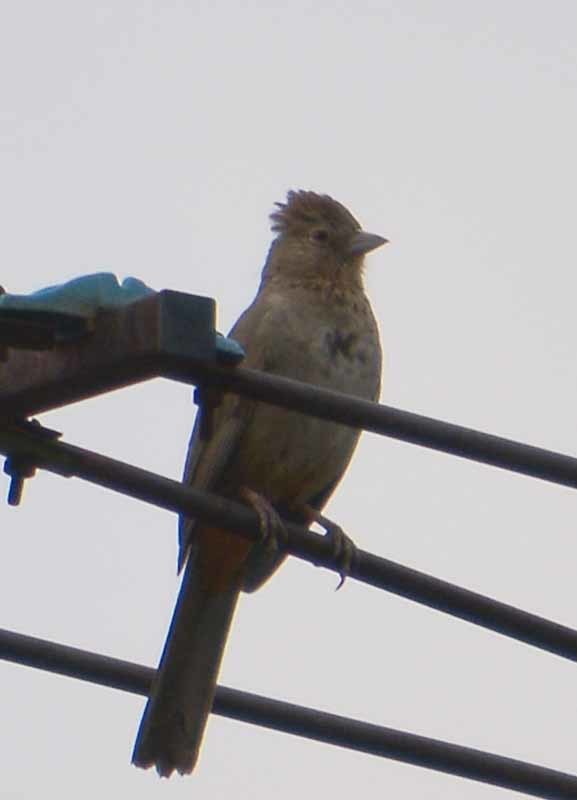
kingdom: Animalia
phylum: Chordata
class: Aves
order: Passeriformes
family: Passerellidae
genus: Melozone
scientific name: Melozone fusca
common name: Canyon towhee
